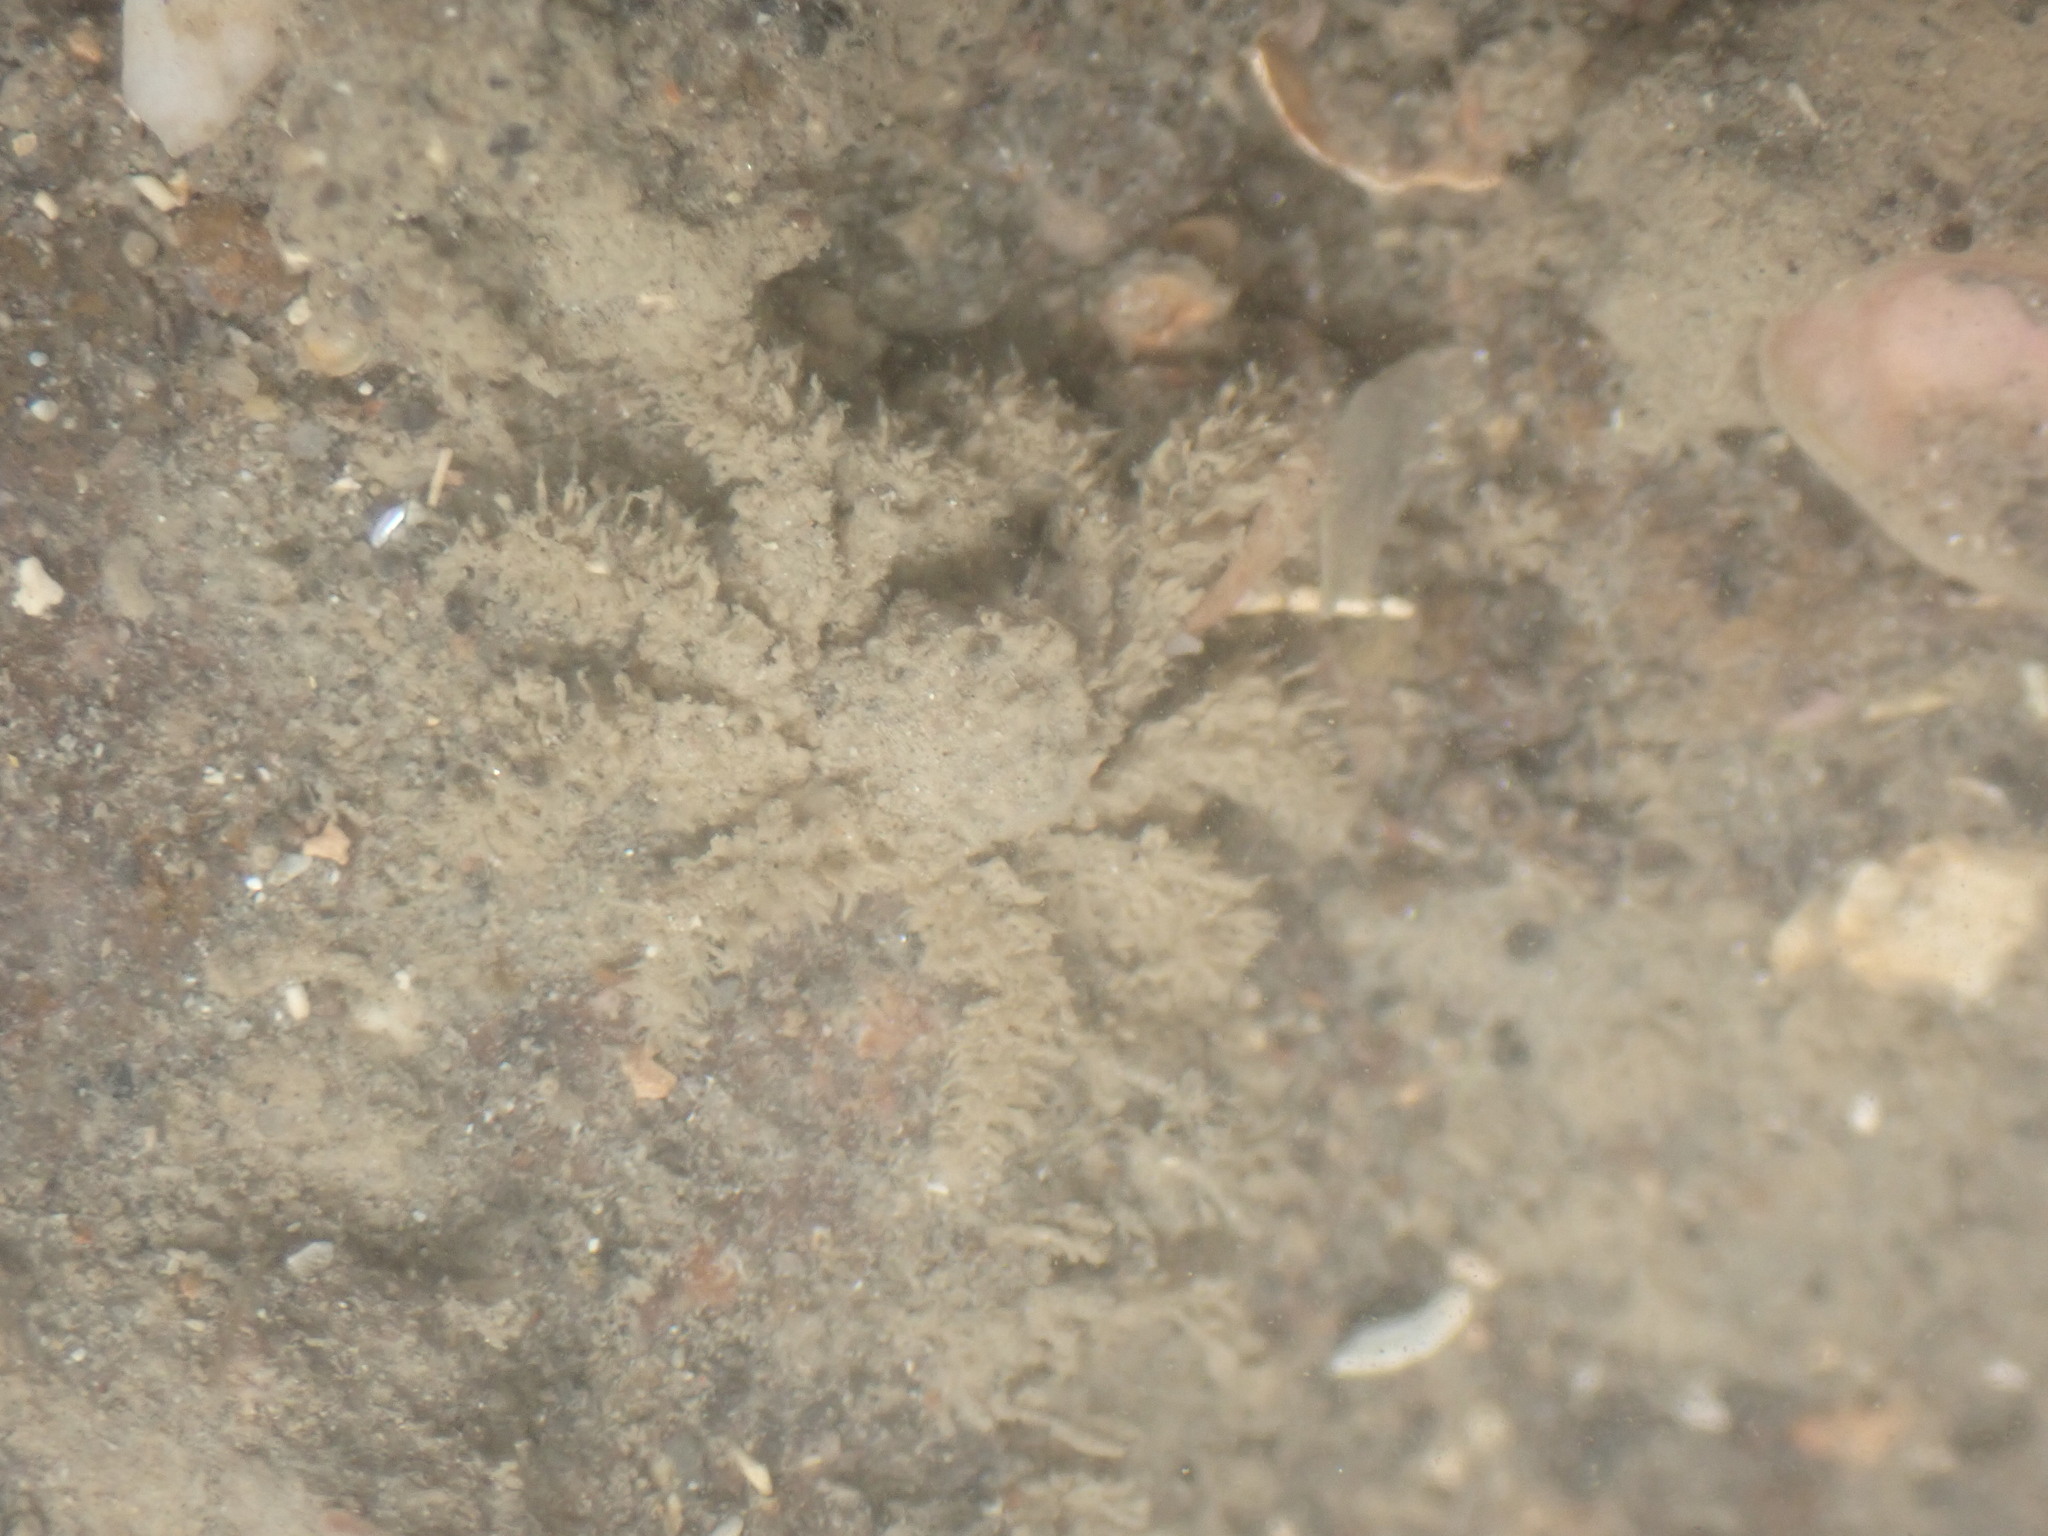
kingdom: Animalia
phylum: Arthropoda
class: Malacostraca
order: Decapoda
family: Hymenosomatidae
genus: Neohymenicus
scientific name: Neohymenicus pubescens
